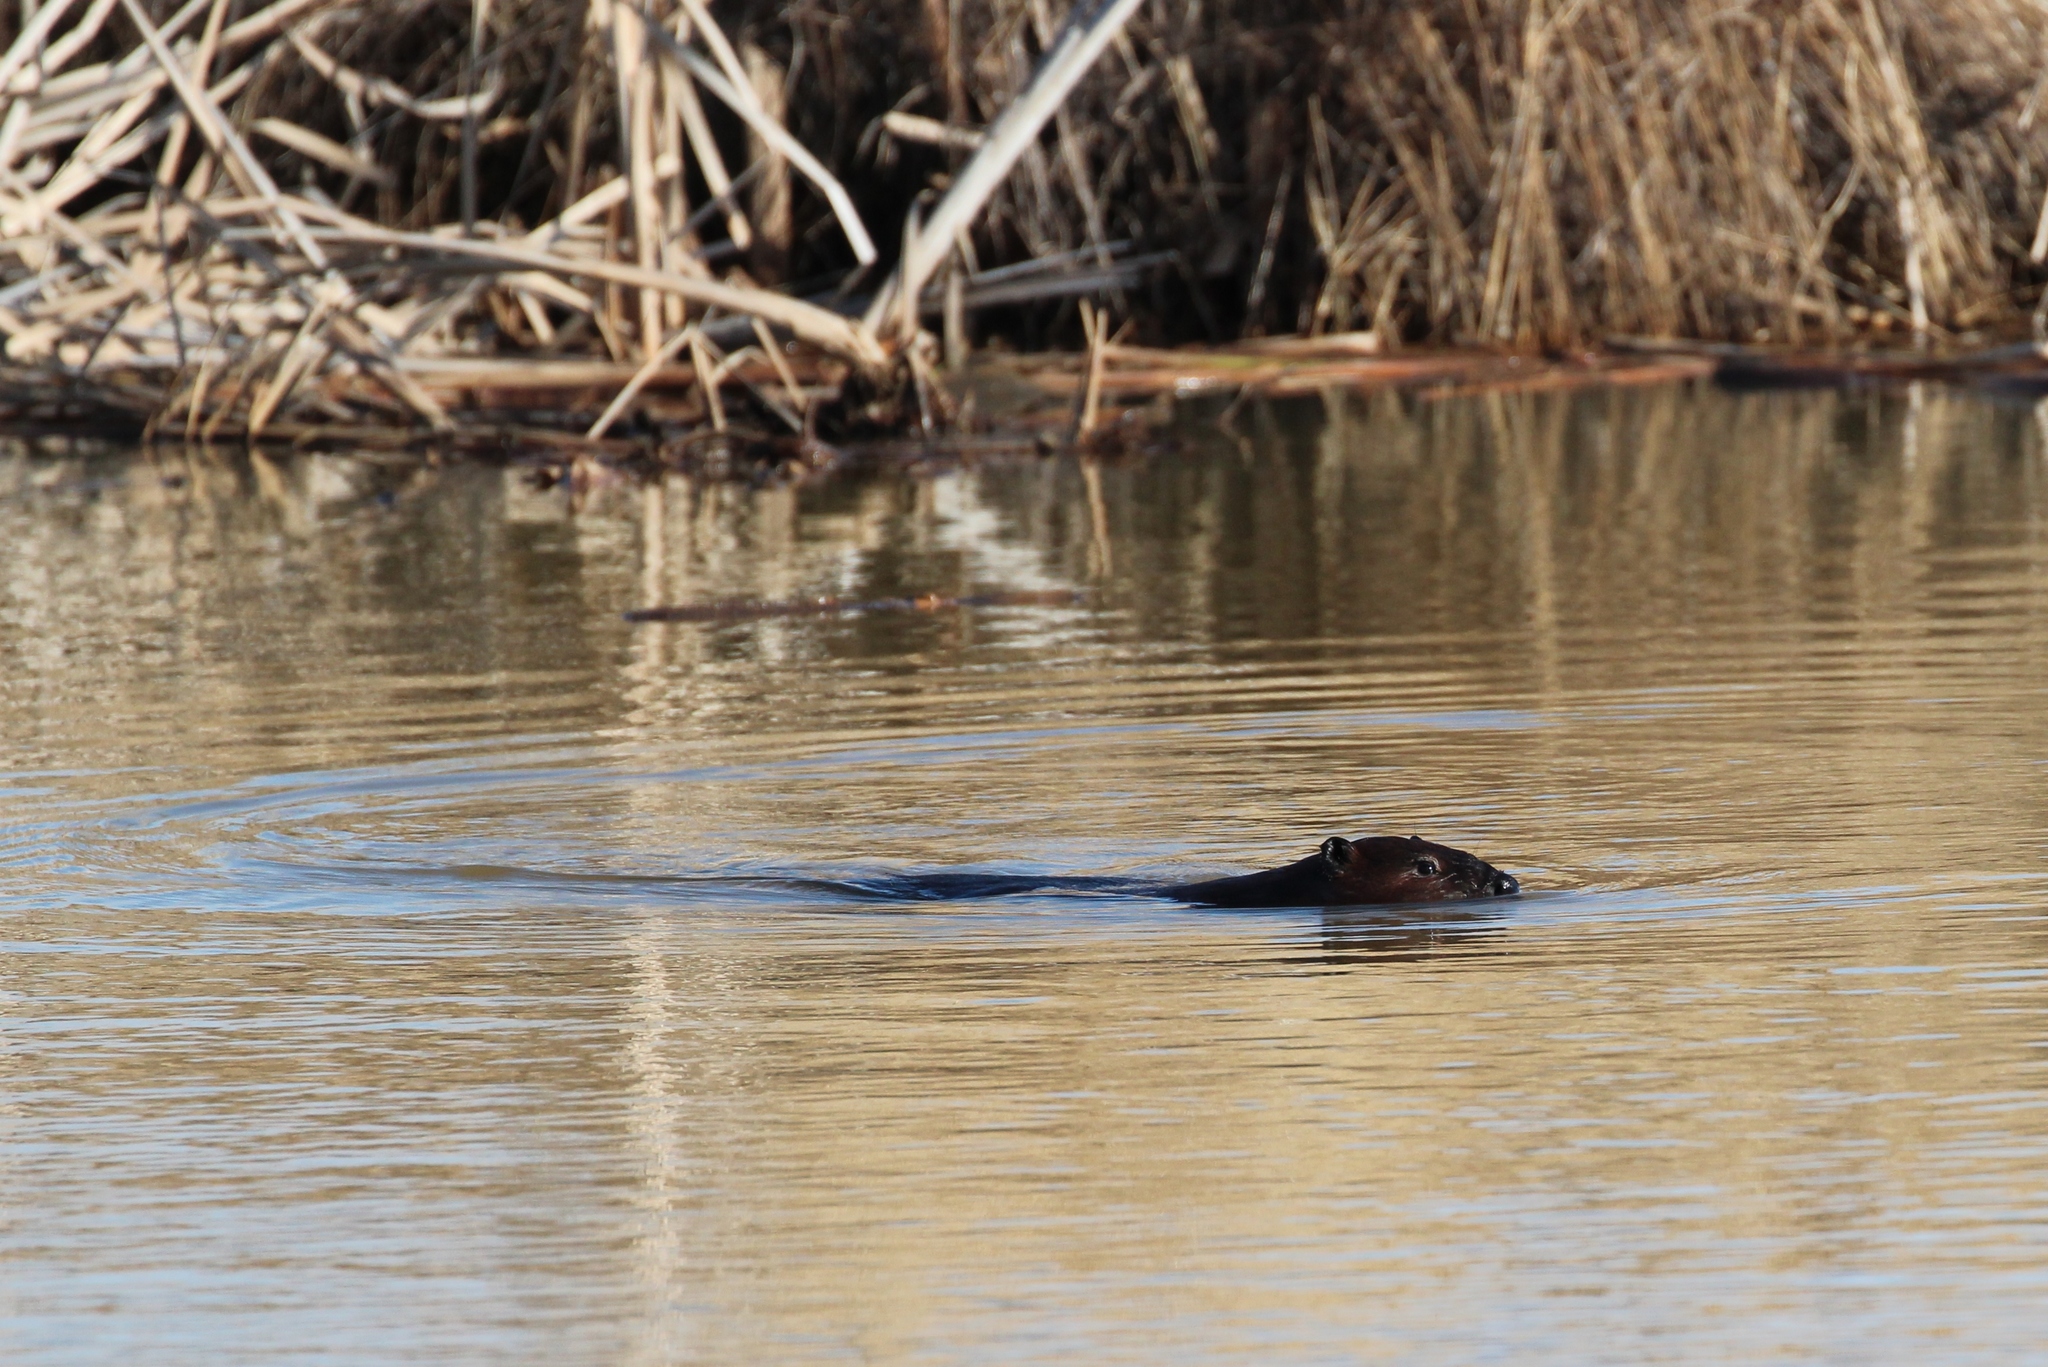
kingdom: Animalia
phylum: Chordata
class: Mammalia
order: Rodentia
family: Castoridae
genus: Castor
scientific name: Castor canadensis
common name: American beaver
